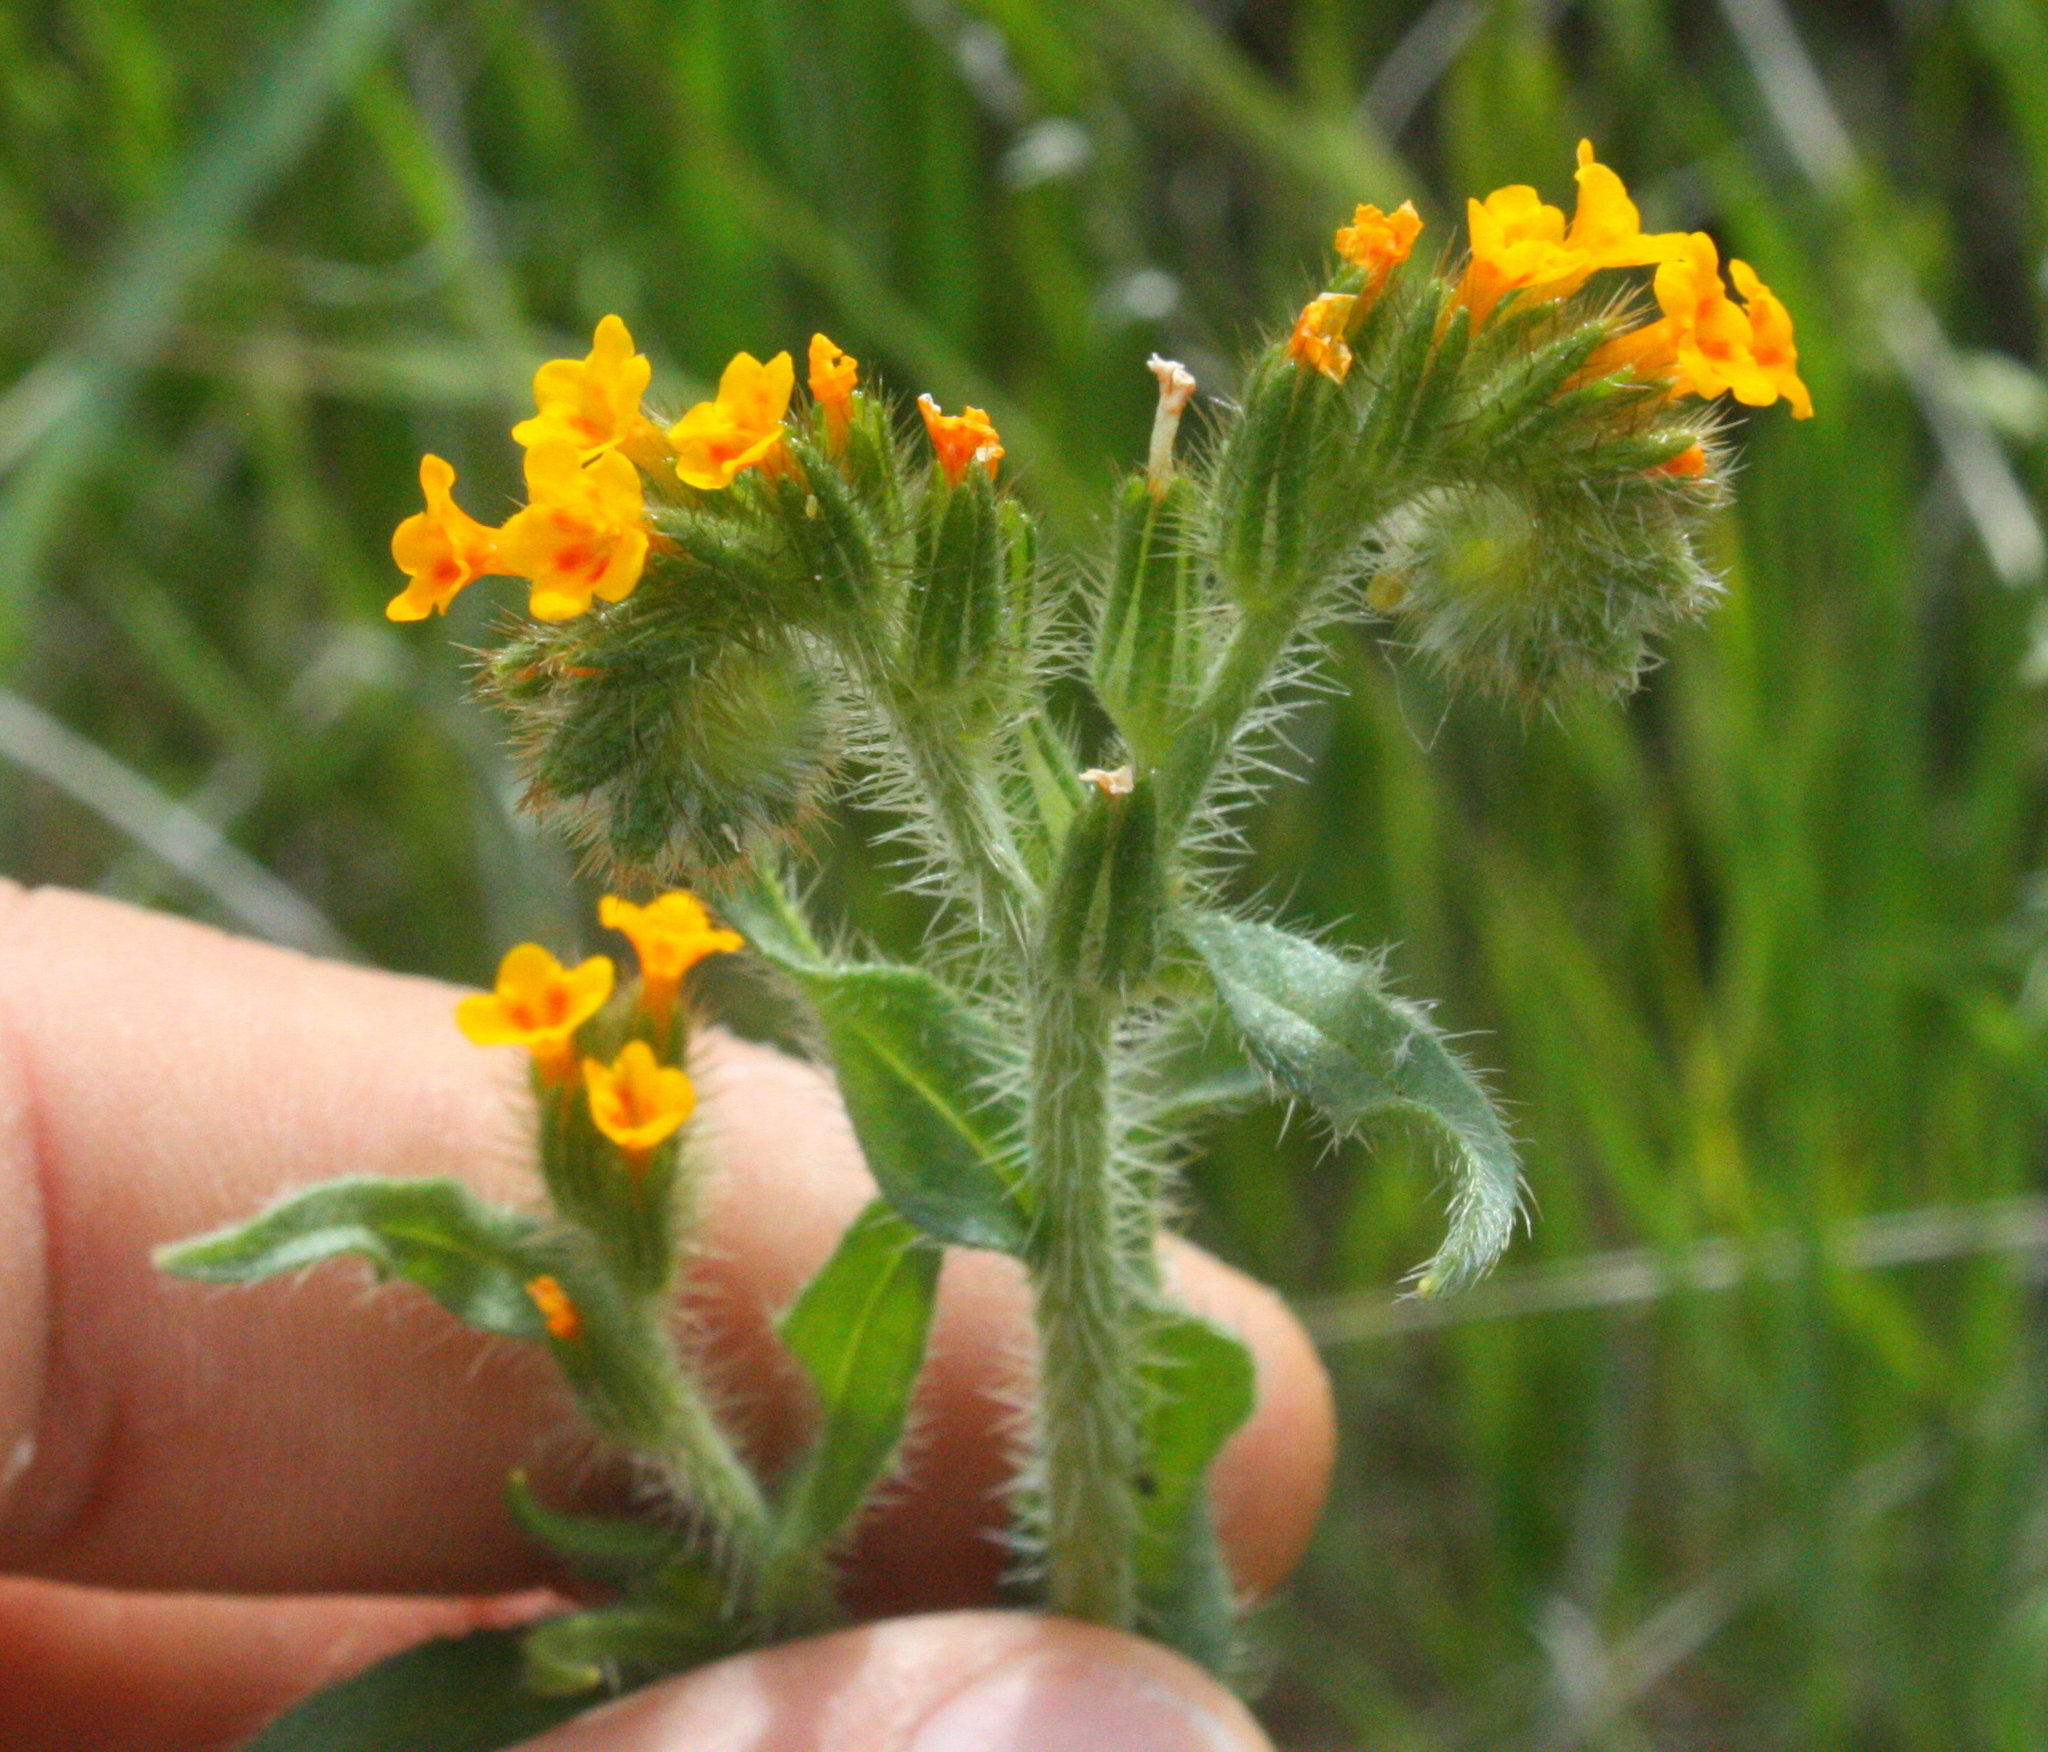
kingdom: Plantae
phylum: Tracheophyta
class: Magnoliopsida
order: Boraginales
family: Boraginaceae
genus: Amsinckia
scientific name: Amsinckia
